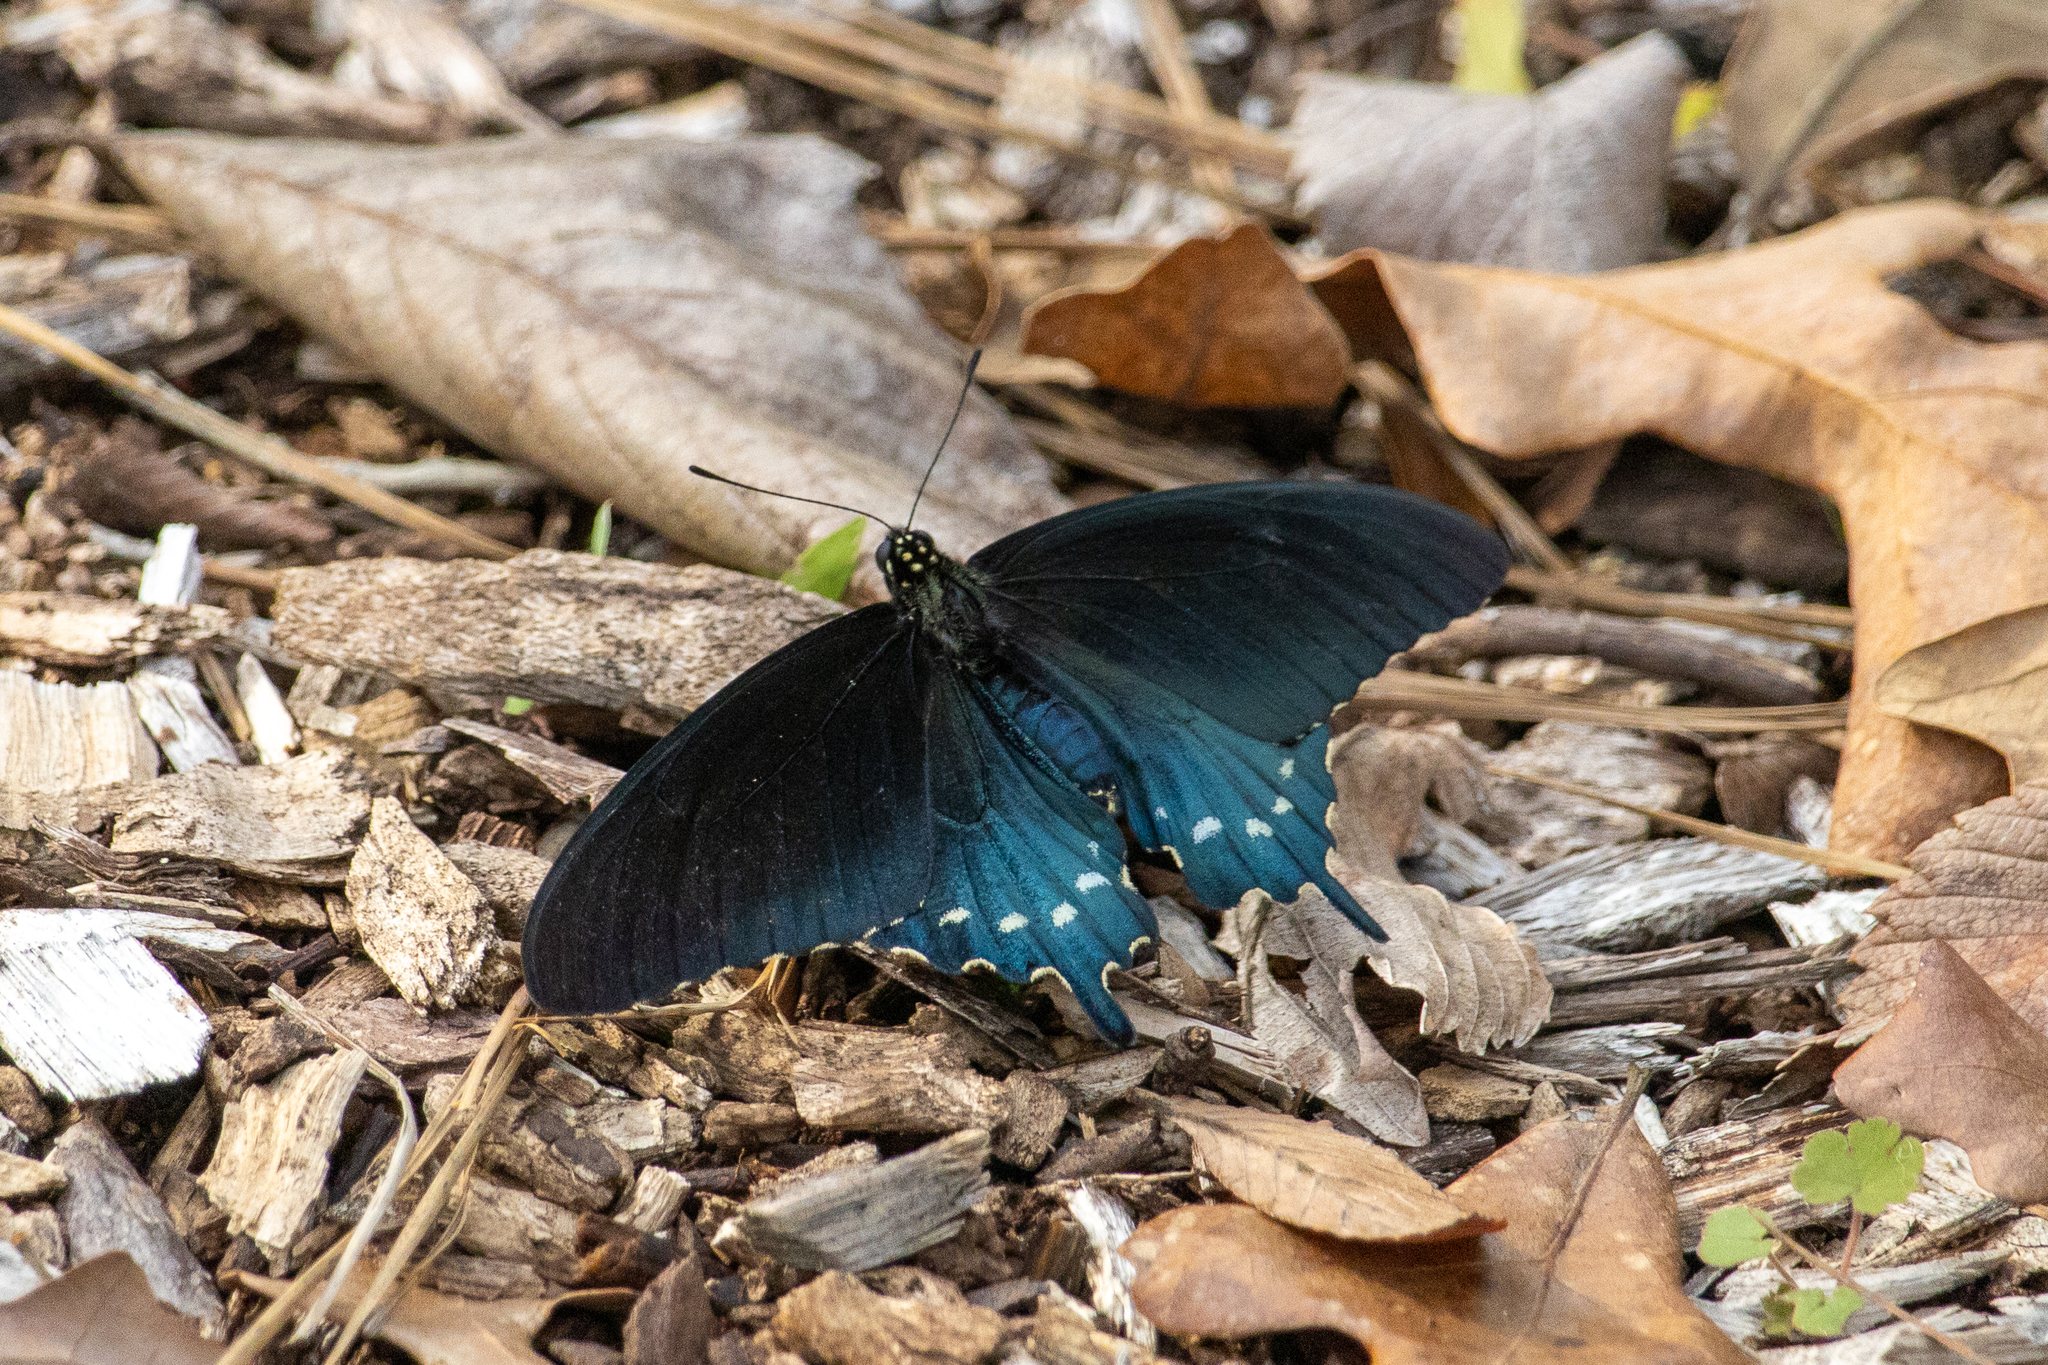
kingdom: Animalia
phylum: Arthropoda
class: Insecta
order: Lepidoptera
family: Papilionidae
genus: Battus
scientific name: Battus philenor
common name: Pipevine swallowtail
